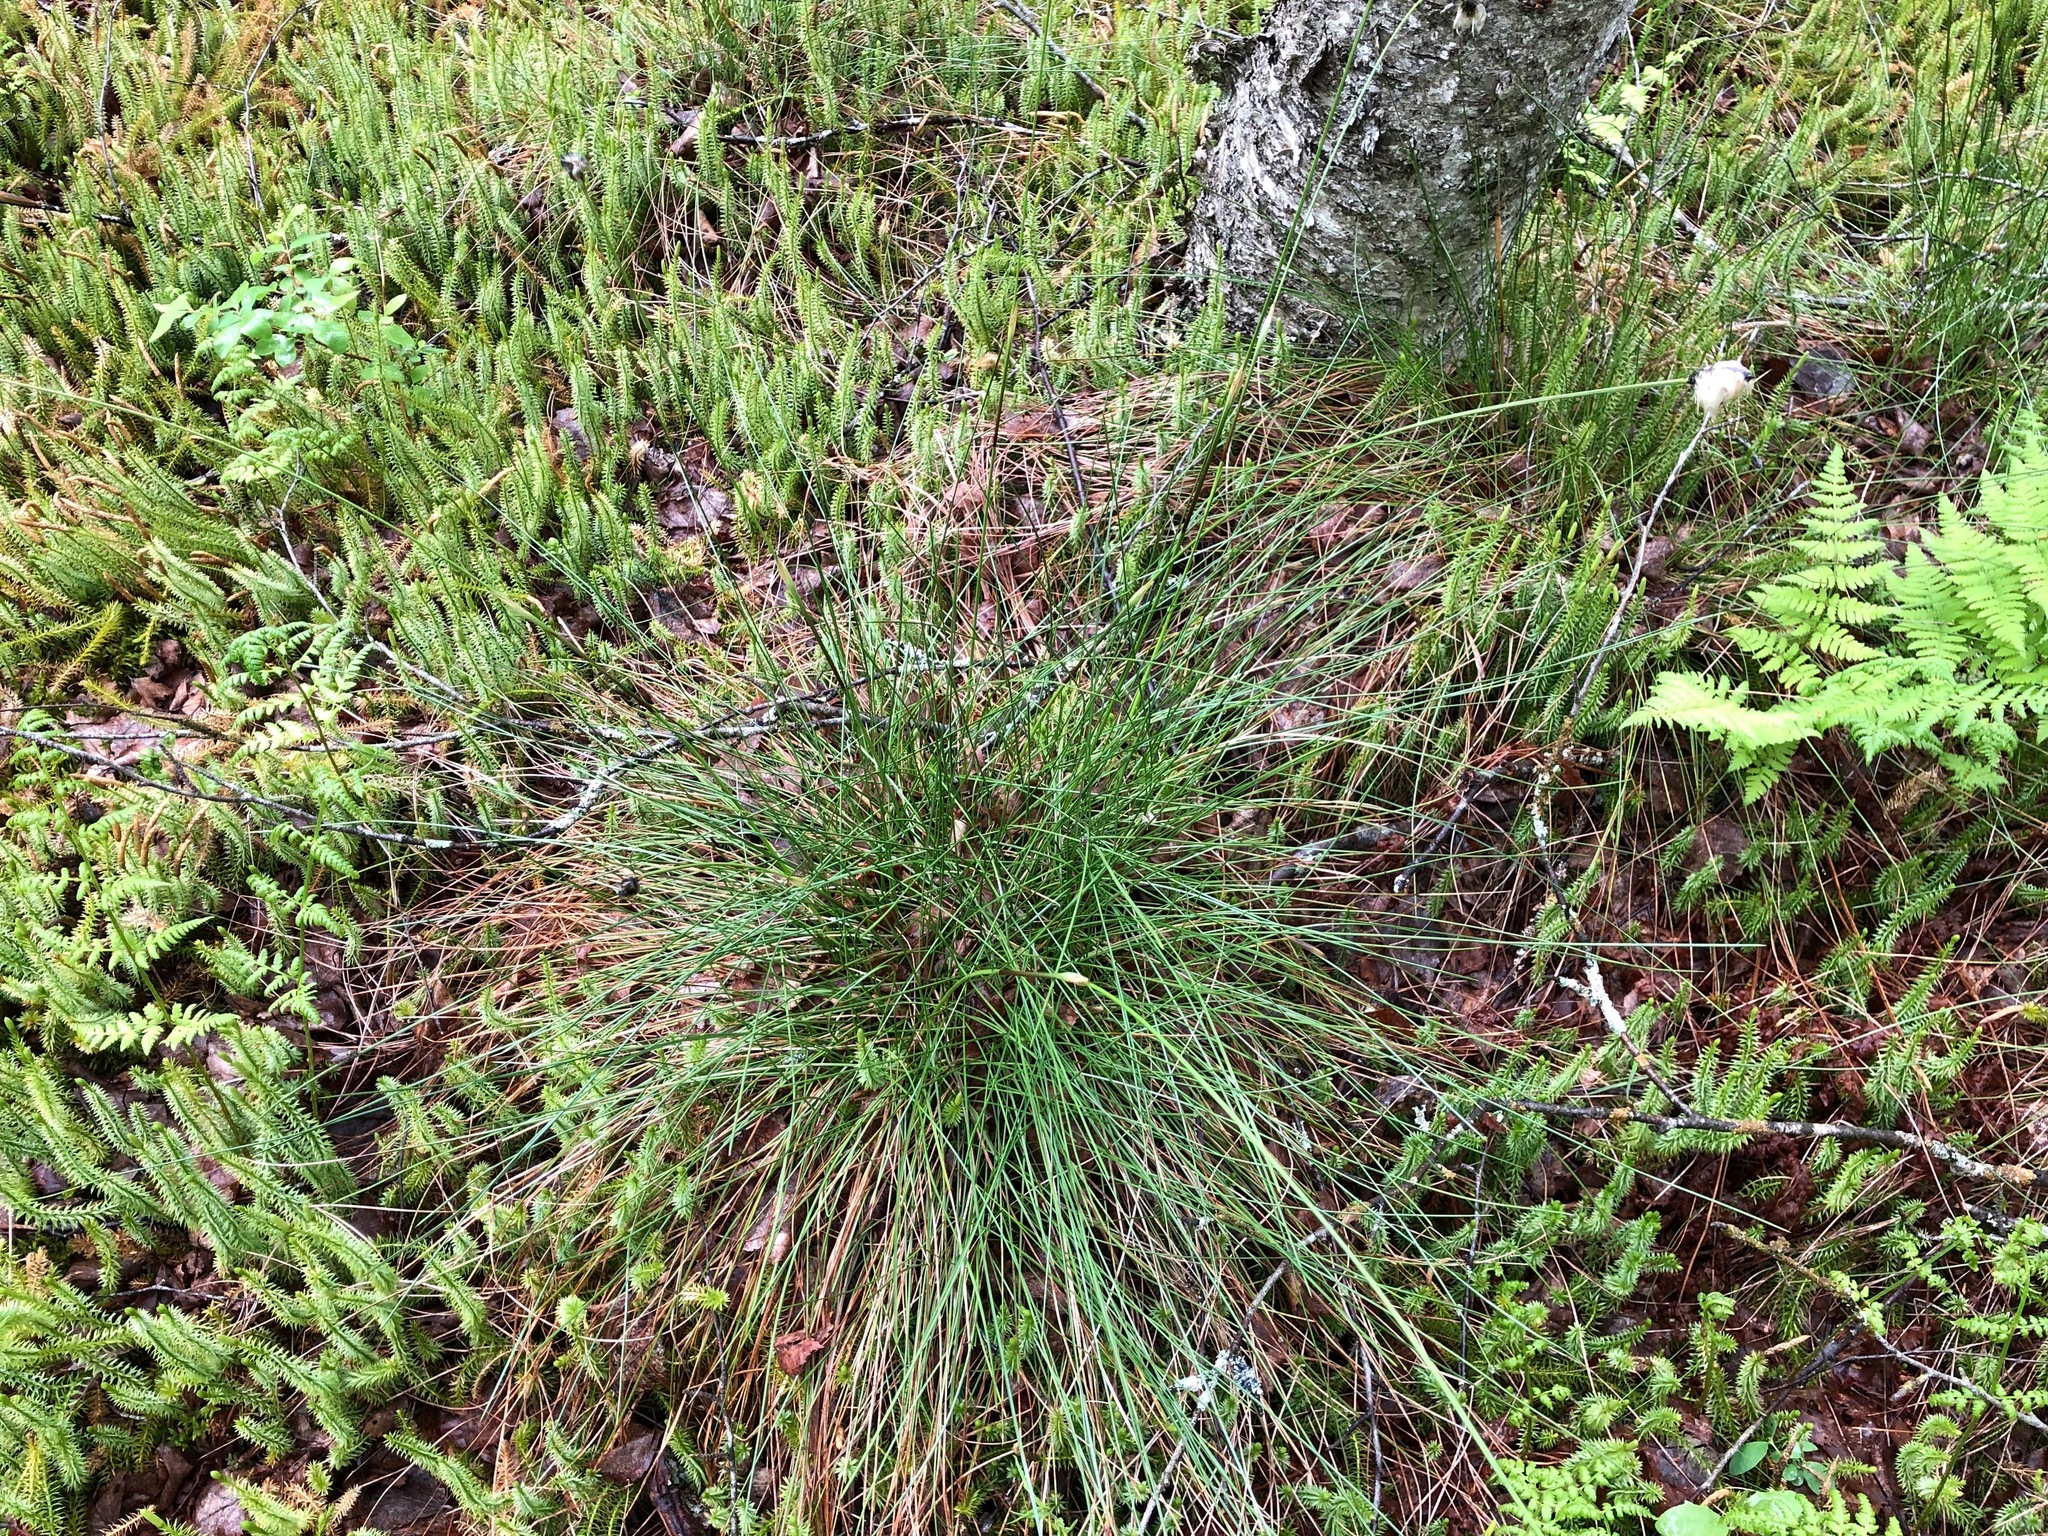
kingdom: Plantae
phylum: Tracheophyta
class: Liliopsida
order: Poales
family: Cyperaceae
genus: Eriophorum
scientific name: Eriophorum vaginatum
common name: Hare's-tail cottongrass
